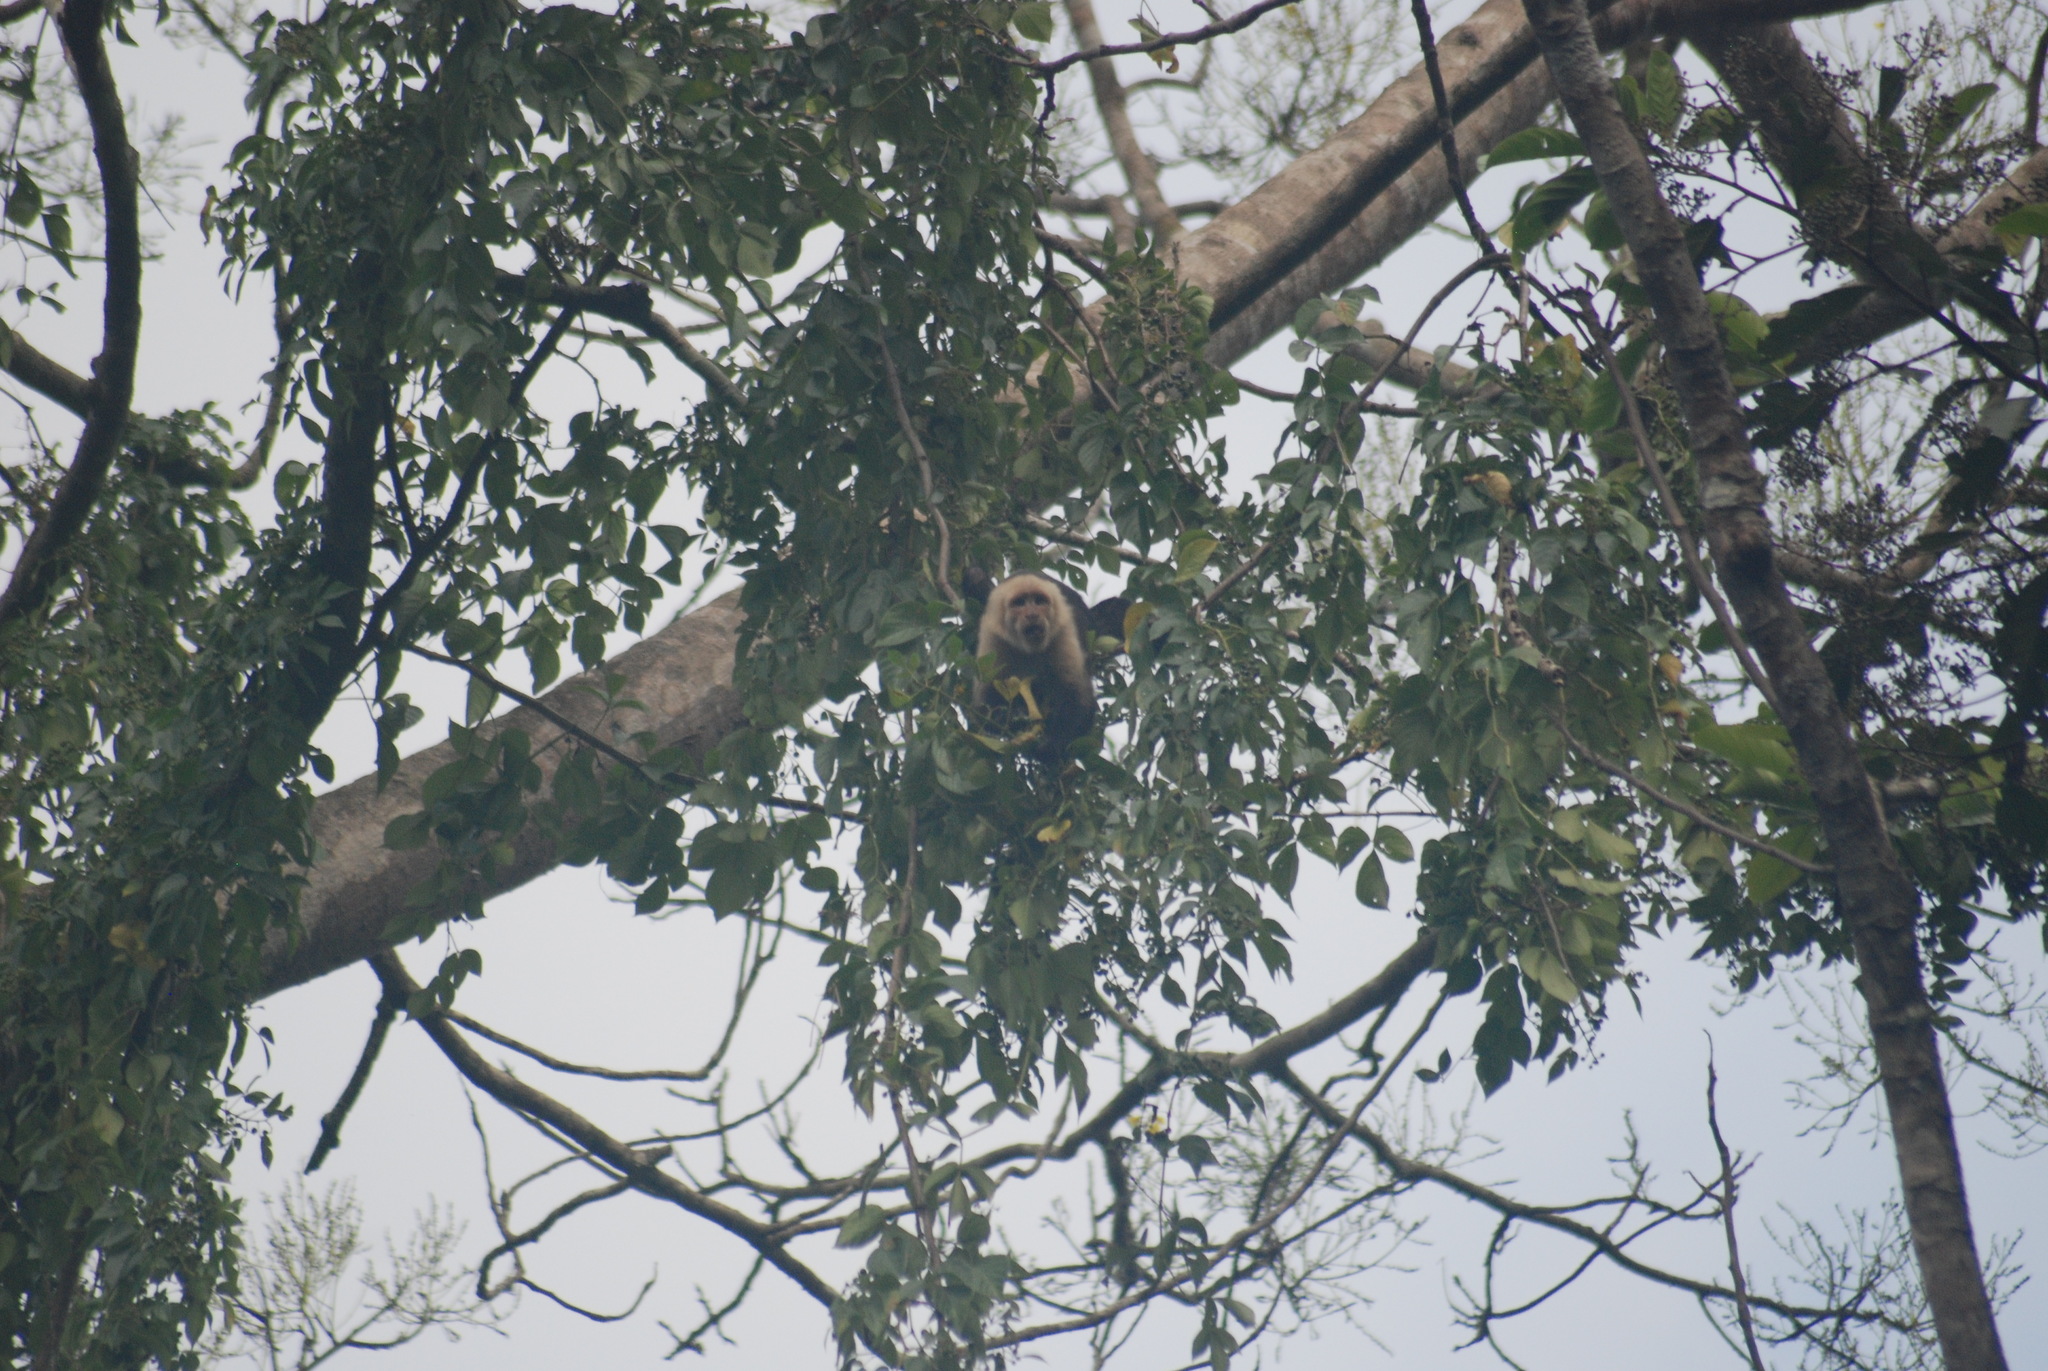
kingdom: Animalia
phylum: Chordata
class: Mammalia
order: Primates
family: Cebidae
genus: Cebus
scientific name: Cebus imitator
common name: Panamanian white-faced capuchin
